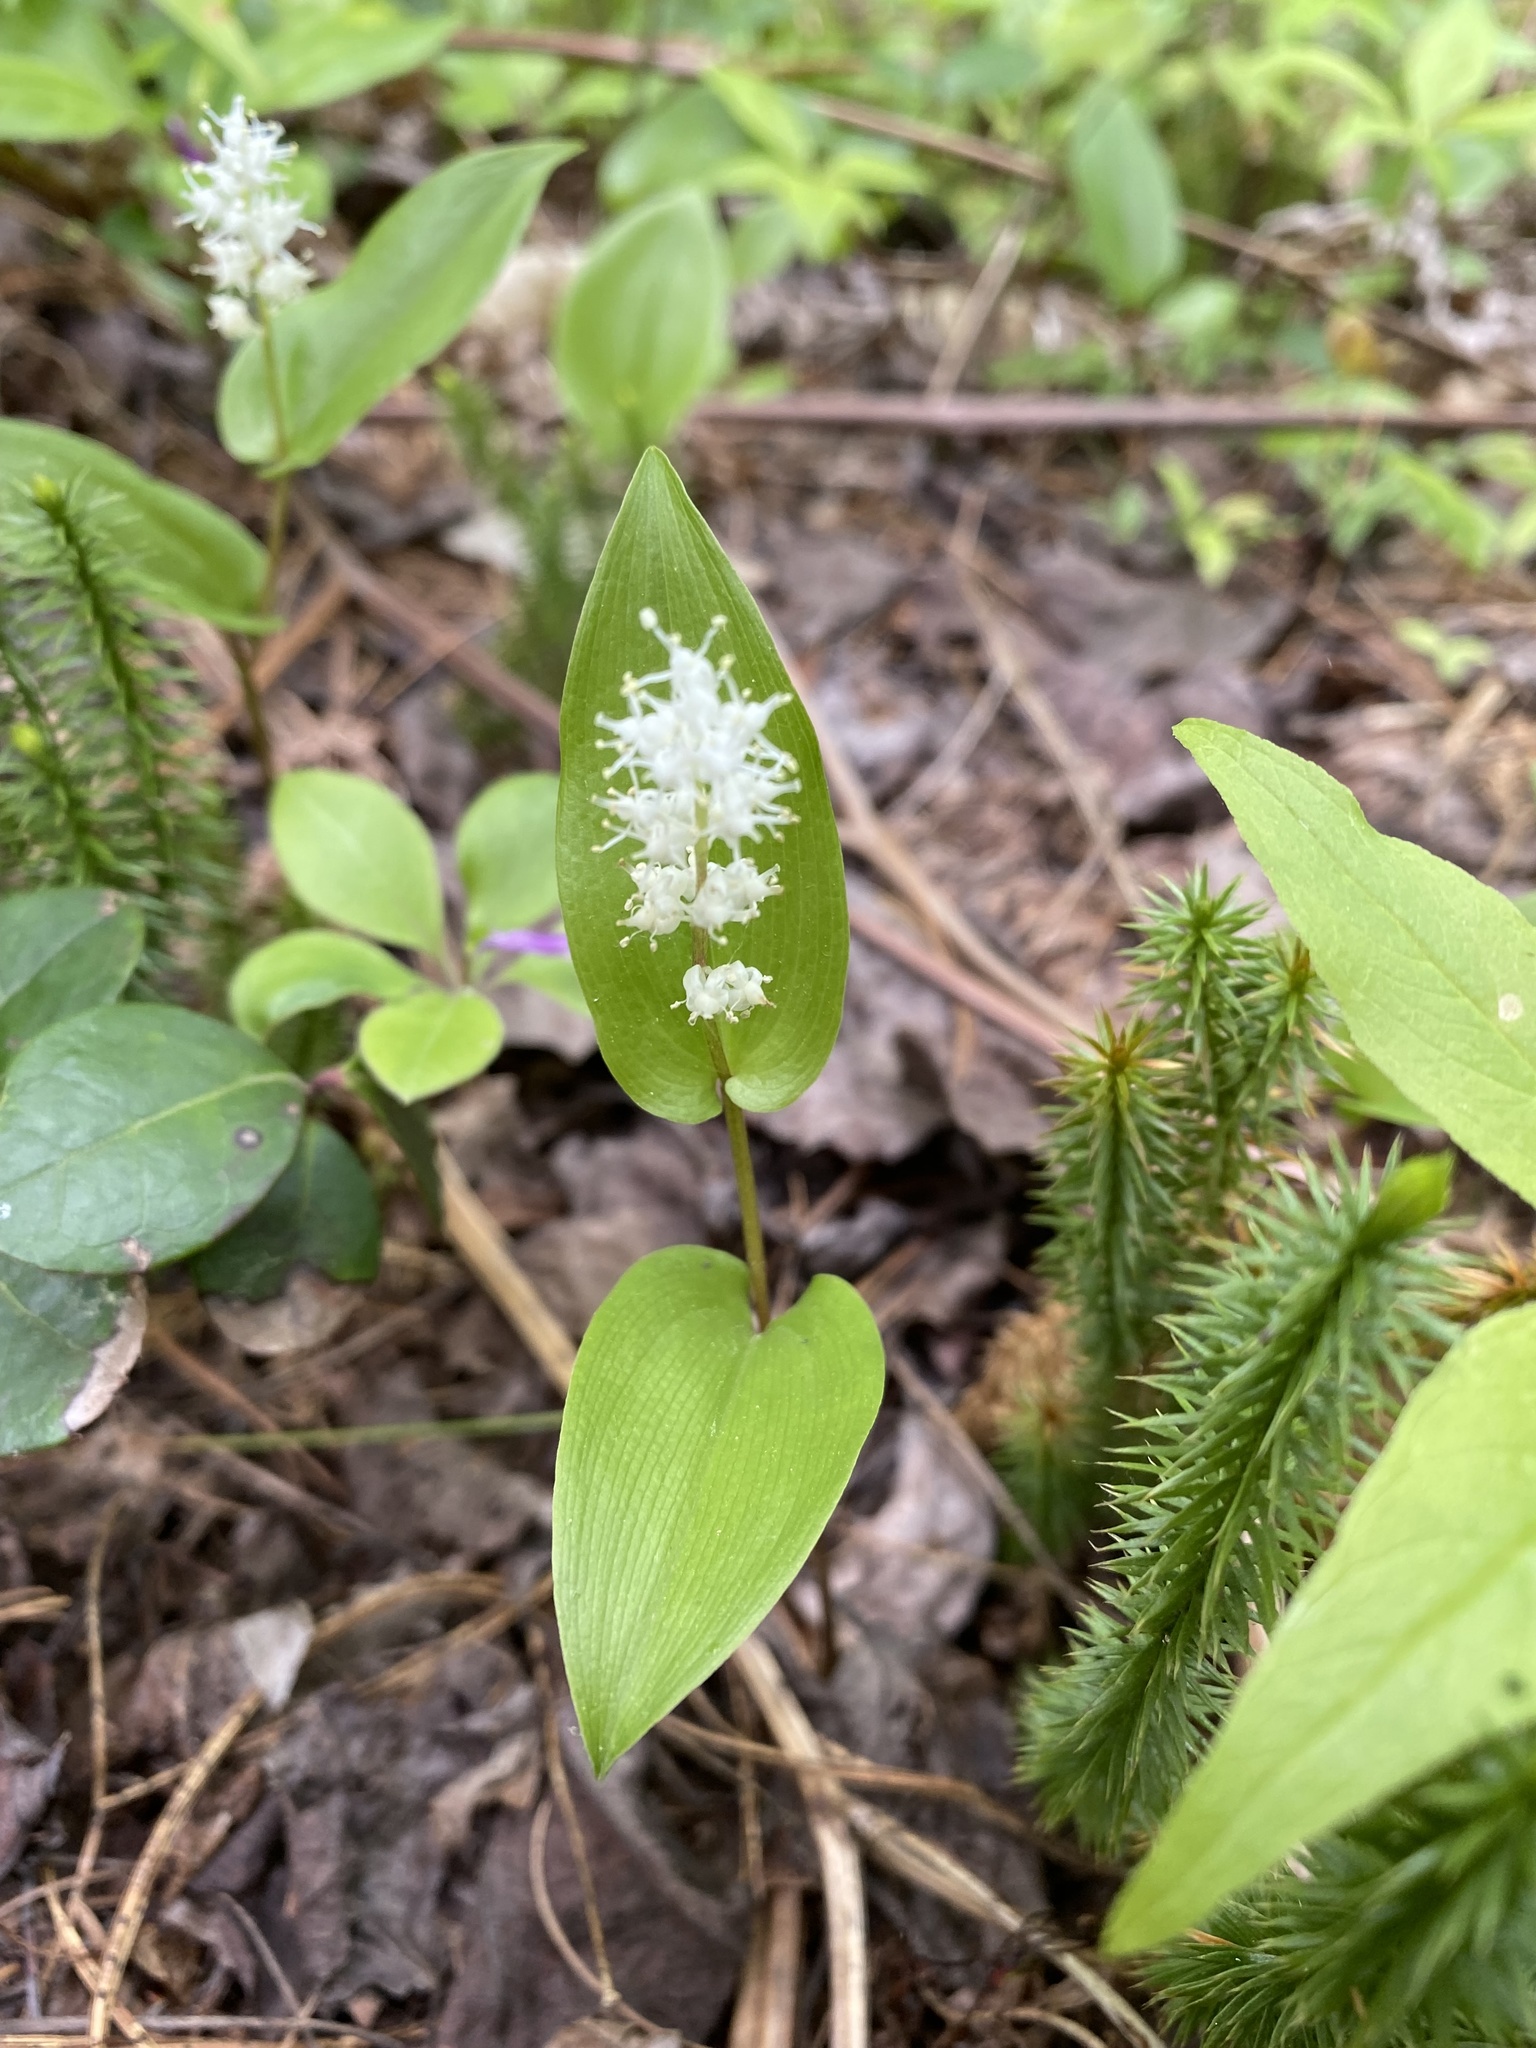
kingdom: Plantae
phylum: Tracheophyta
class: Liliopsida
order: Asparagales
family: Asparagaceae
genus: Maianthemum
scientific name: Maianthemum canadense
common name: False lily-of-the-valley
